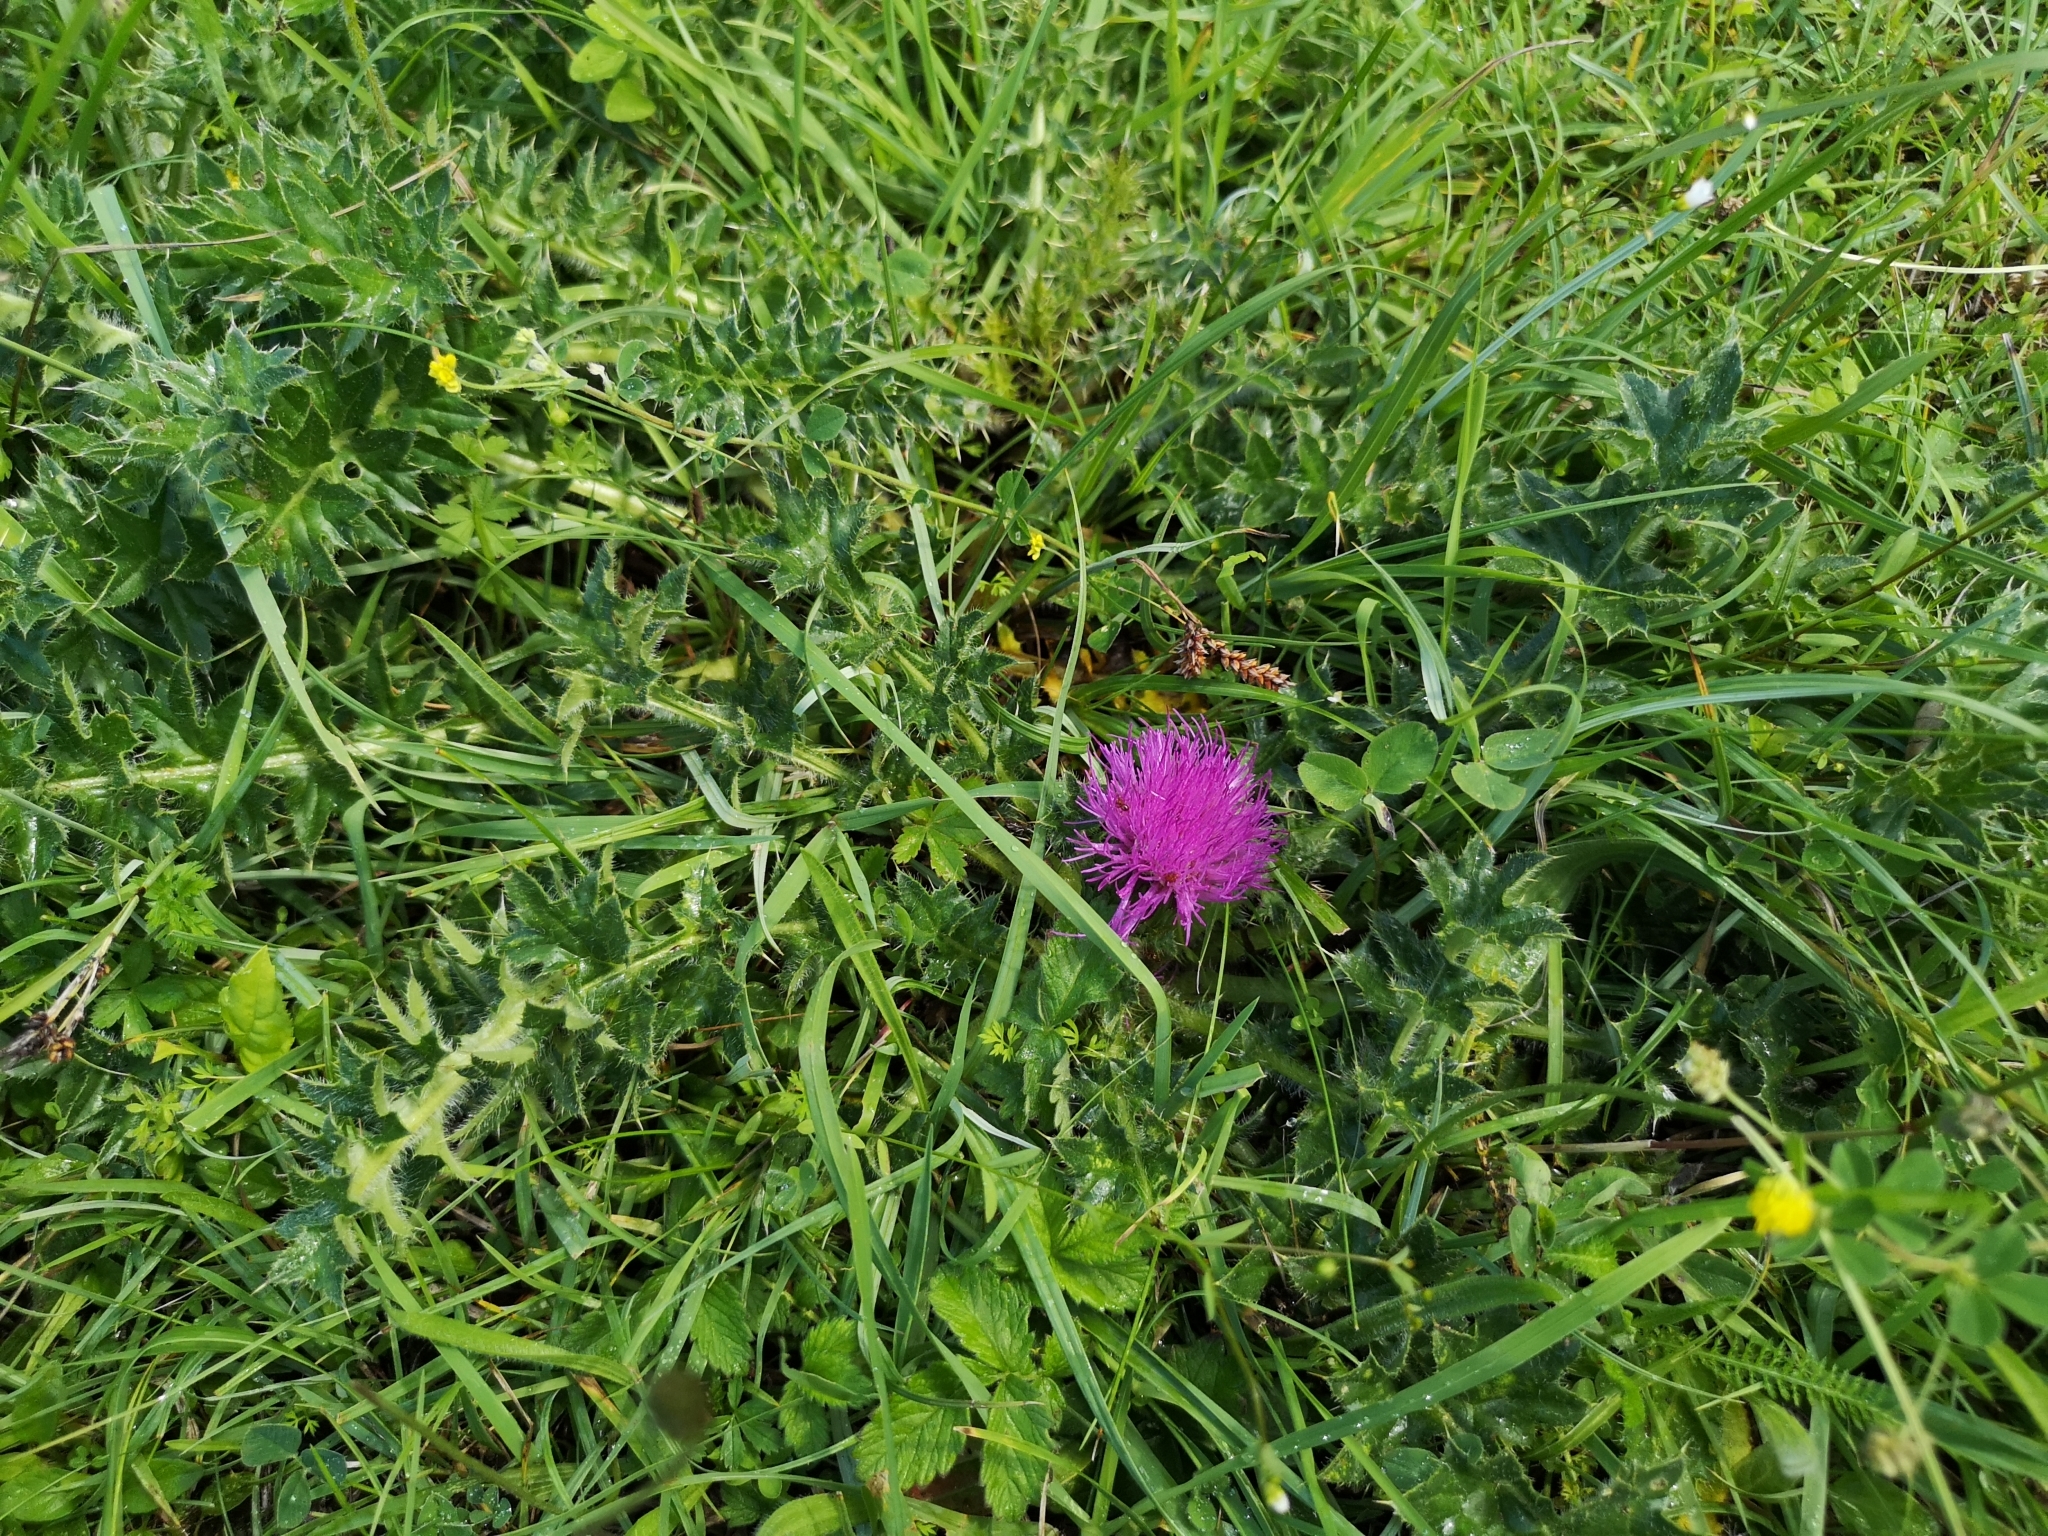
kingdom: Plantae
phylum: Tracheophyta
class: Magnoliopsida
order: Asterales
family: Asteraceae
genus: Cirsium
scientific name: Cirsium acaulon
